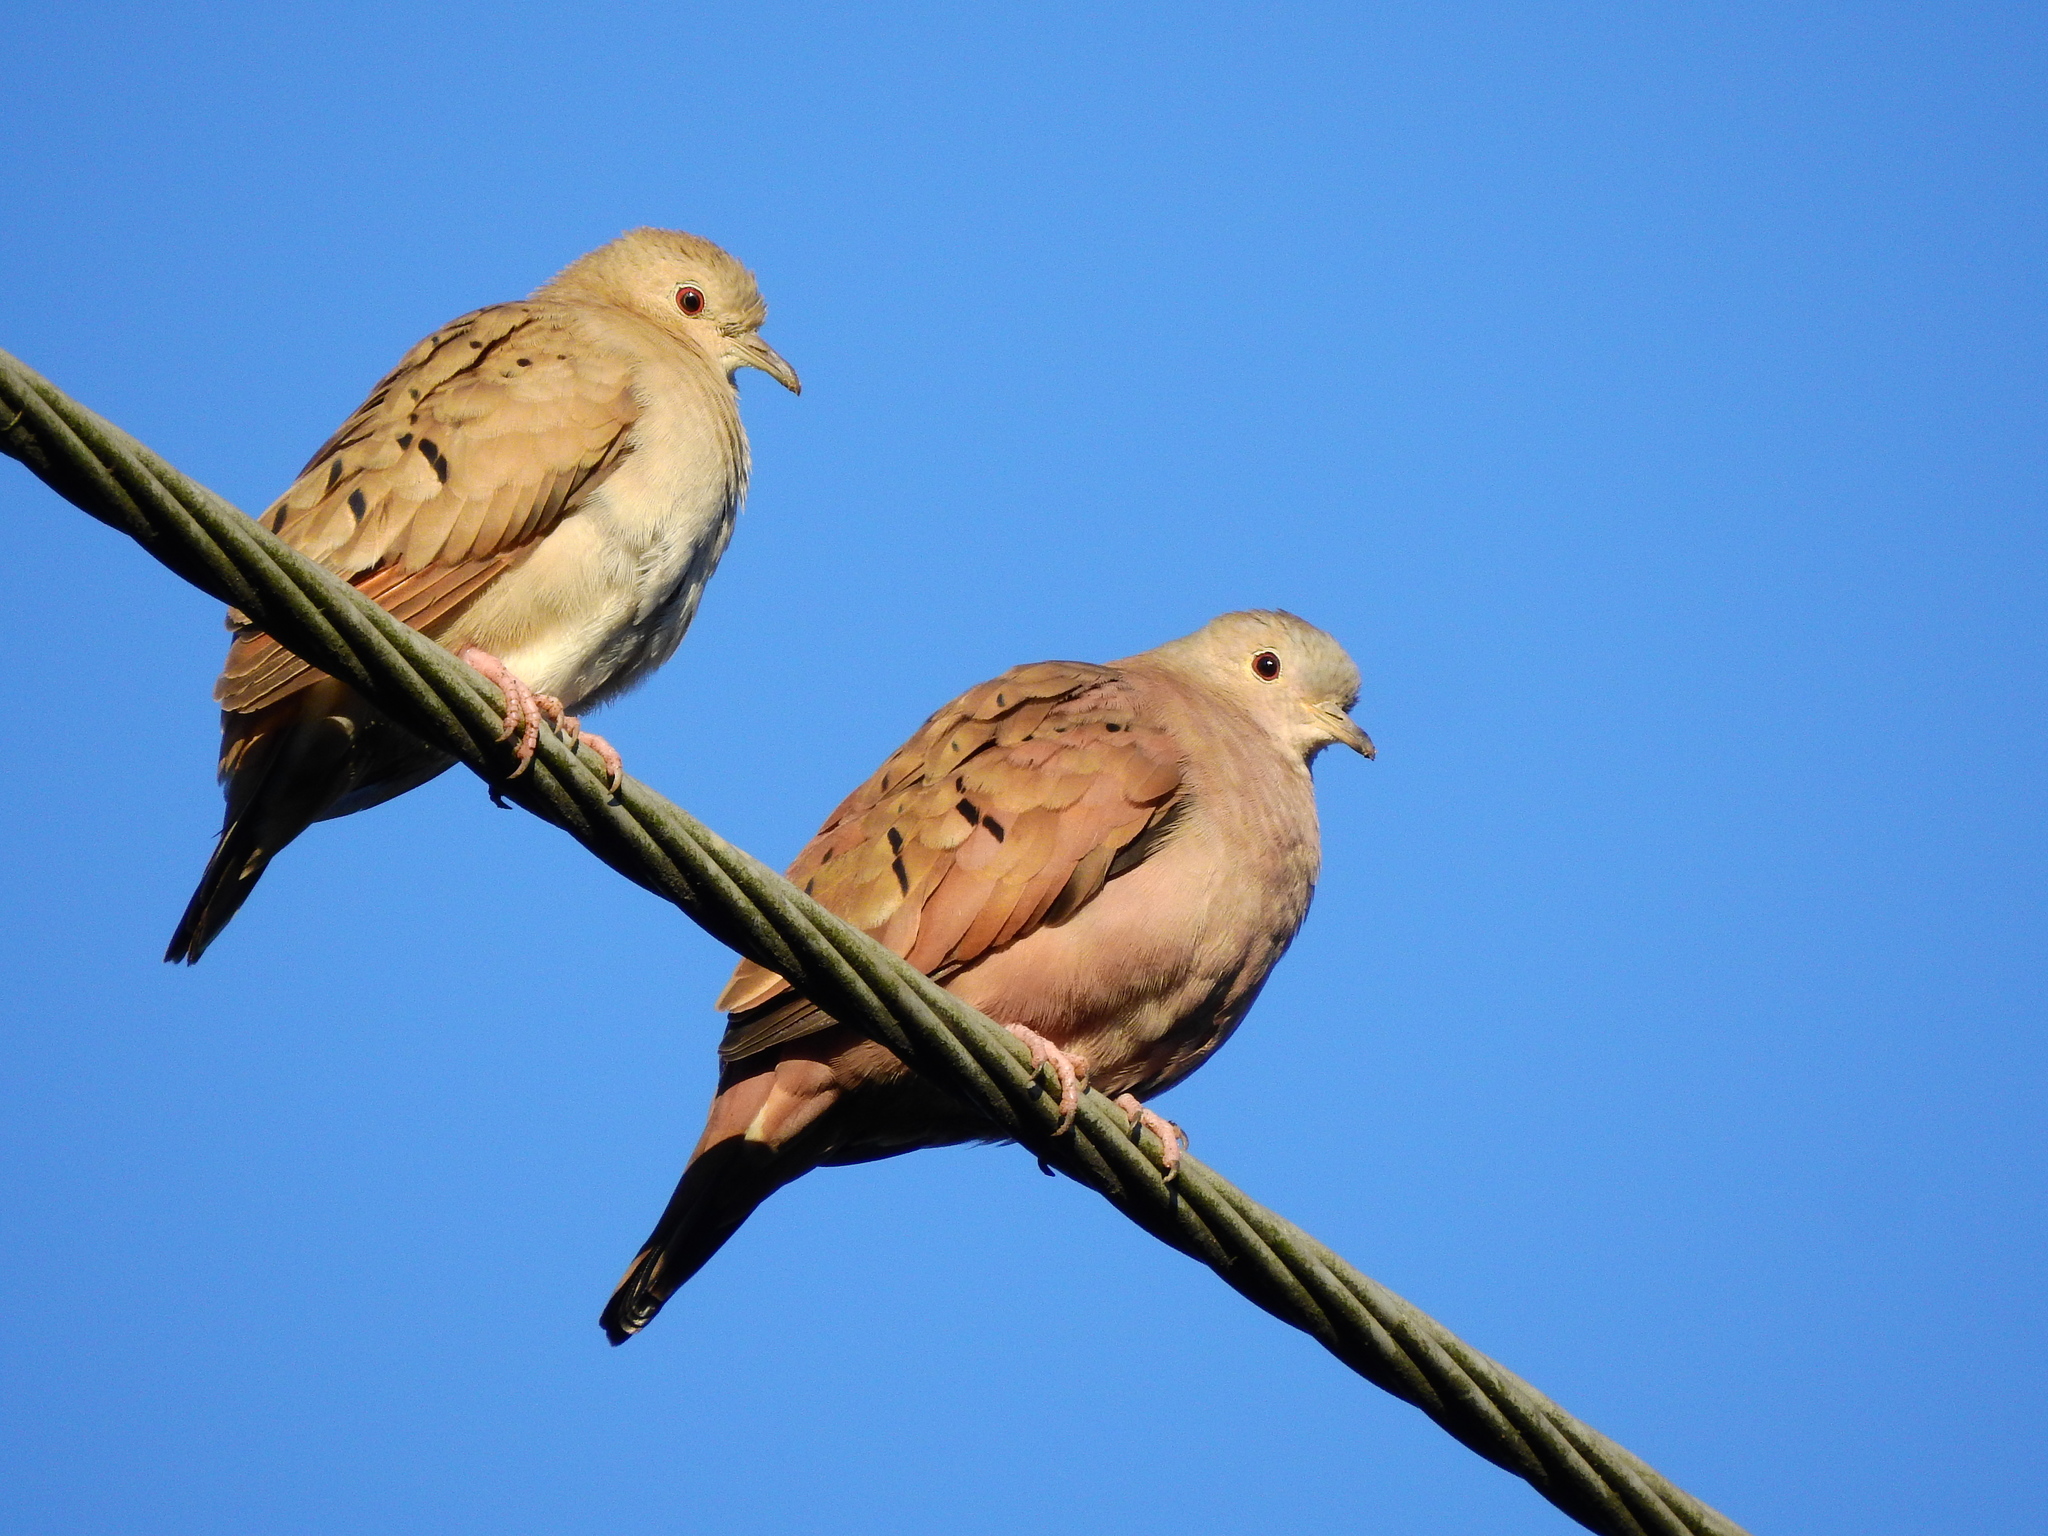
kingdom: Animalia
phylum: Chordata
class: Aves
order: Columbiformes
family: Columbidae
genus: Columbina
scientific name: Columbina talpacoti
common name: Ruddy ground dove
